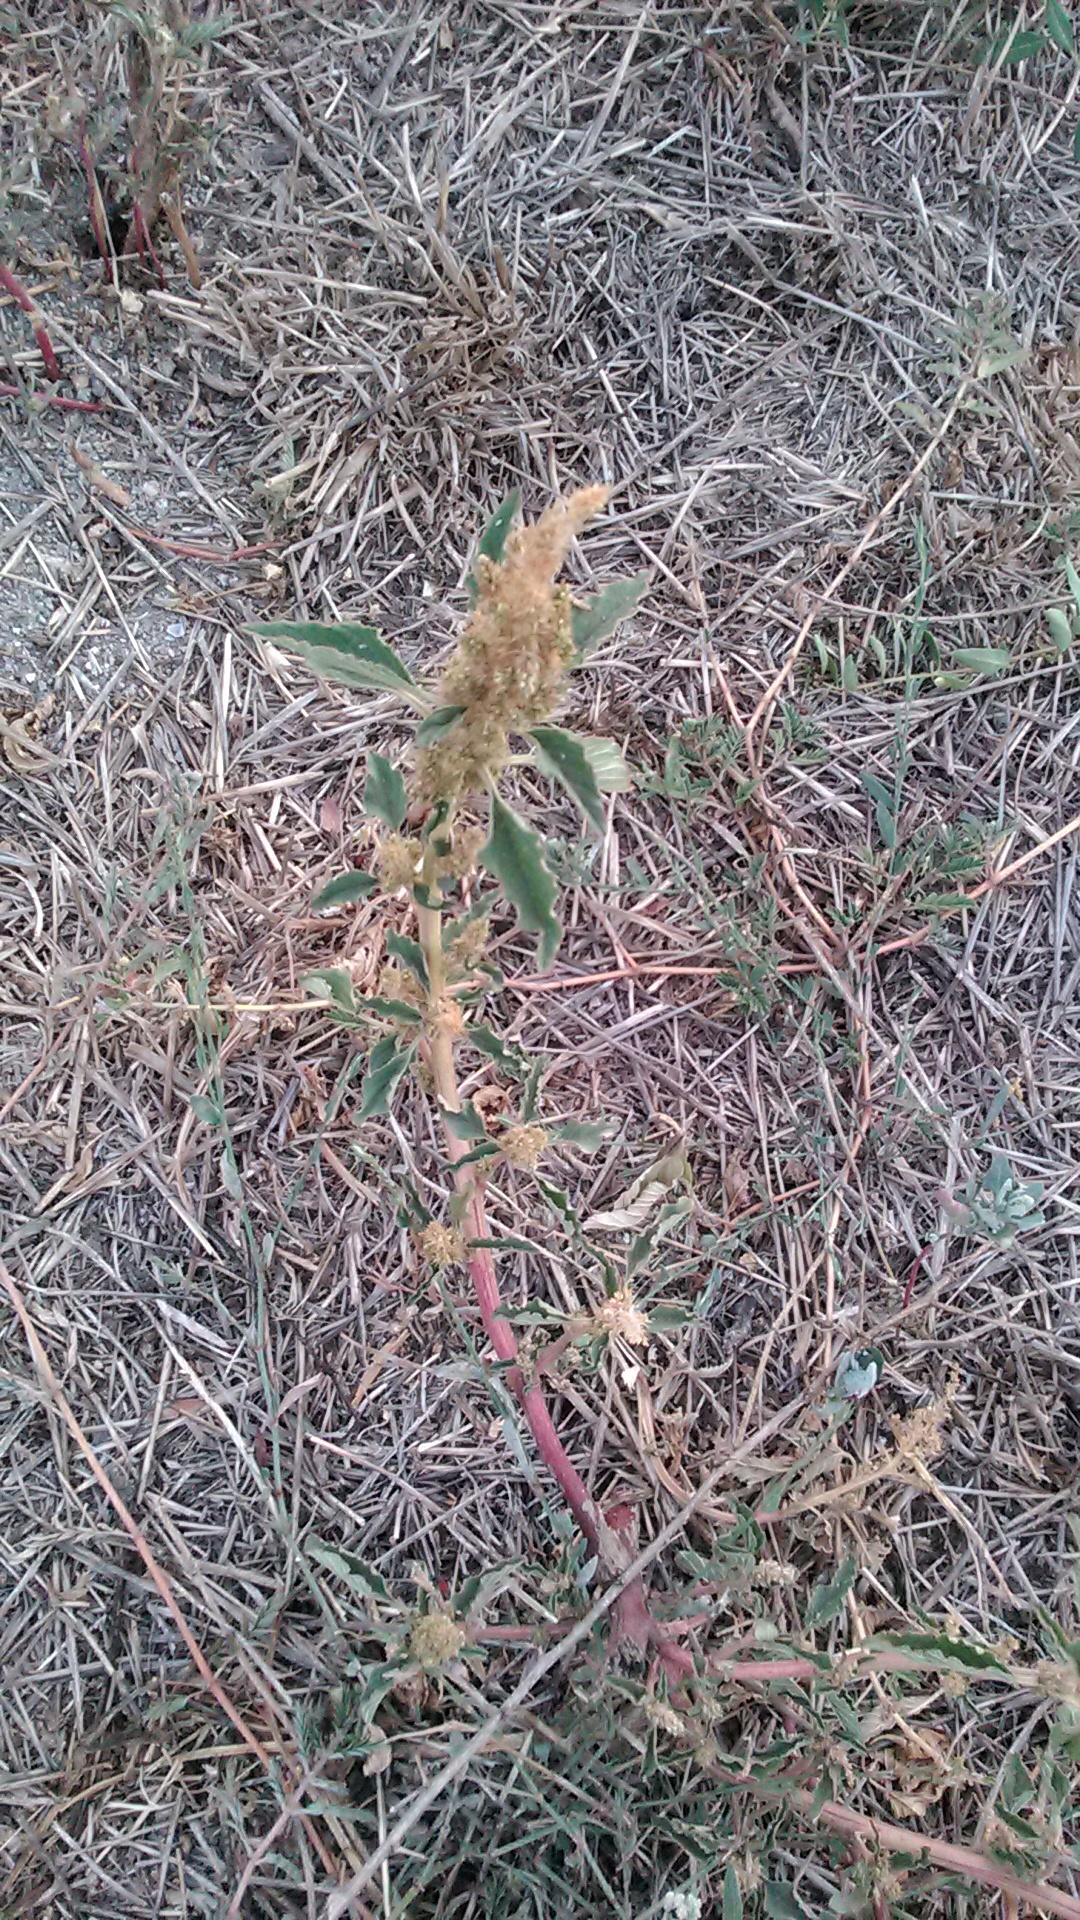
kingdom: Plantae
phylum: Tracheophyta
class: Magnoliopsida
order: Caryophyllales
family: Amaranthaceae
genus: Amaranthus
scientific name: Amaranthus retroflexus
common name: Redroot amaranth
